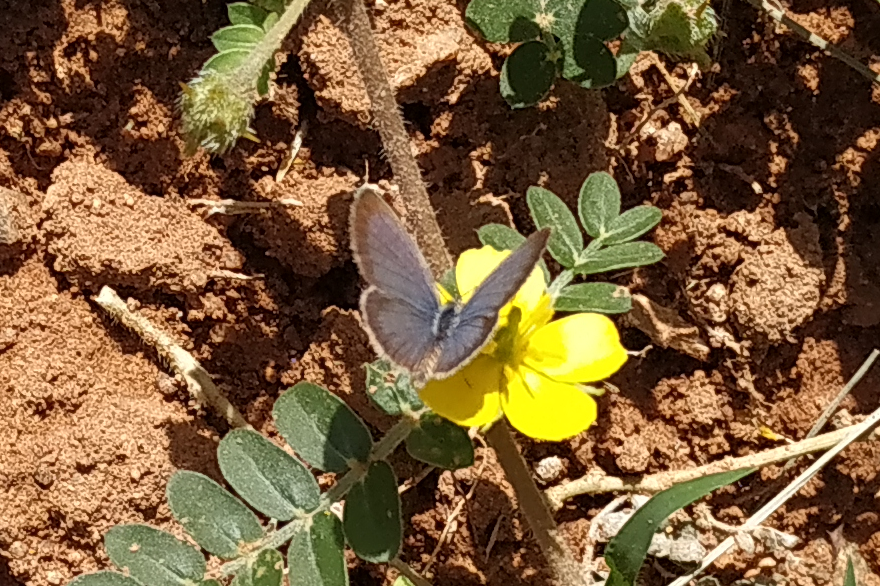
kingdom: Animalia
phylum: Arthropoda
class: Insecta
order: Lepidoptera
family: Lycaenidae
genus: Zizeeria
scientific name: Zizeeria karsandra
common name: Dark grass blue
